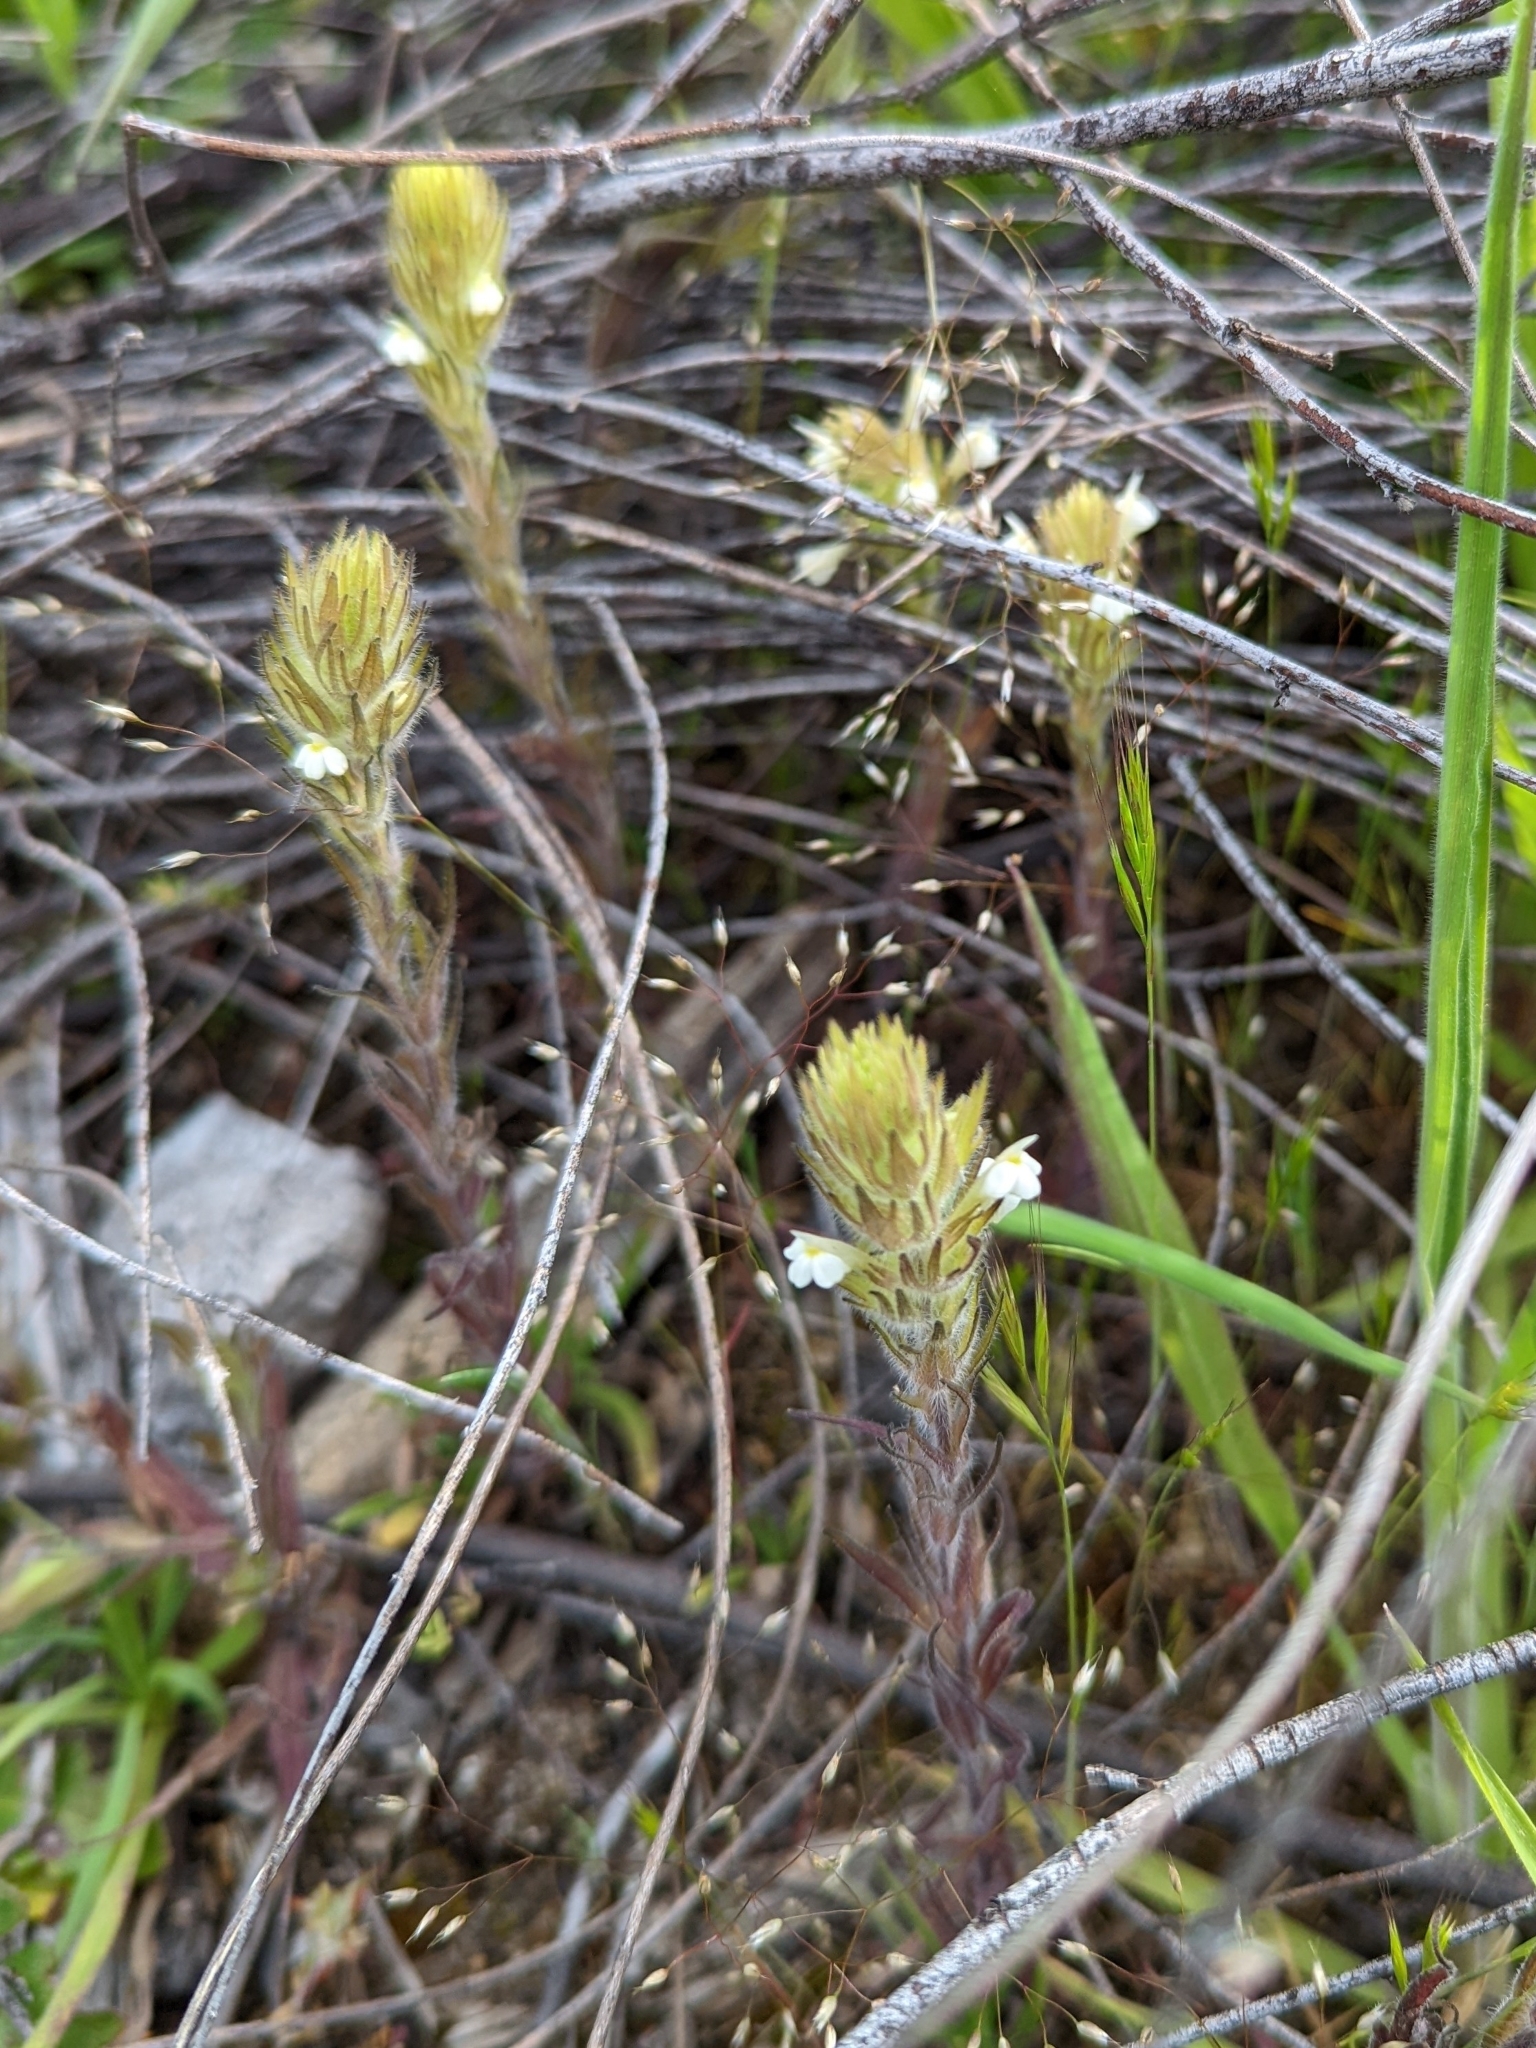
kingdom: Plantae
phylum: Tracheophyta
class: Magnoliopsida
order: Lamiales
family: Orobanchaceae
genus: Castilleja
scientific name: Castilleja tenuis
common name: Hairy indian paintbrush
